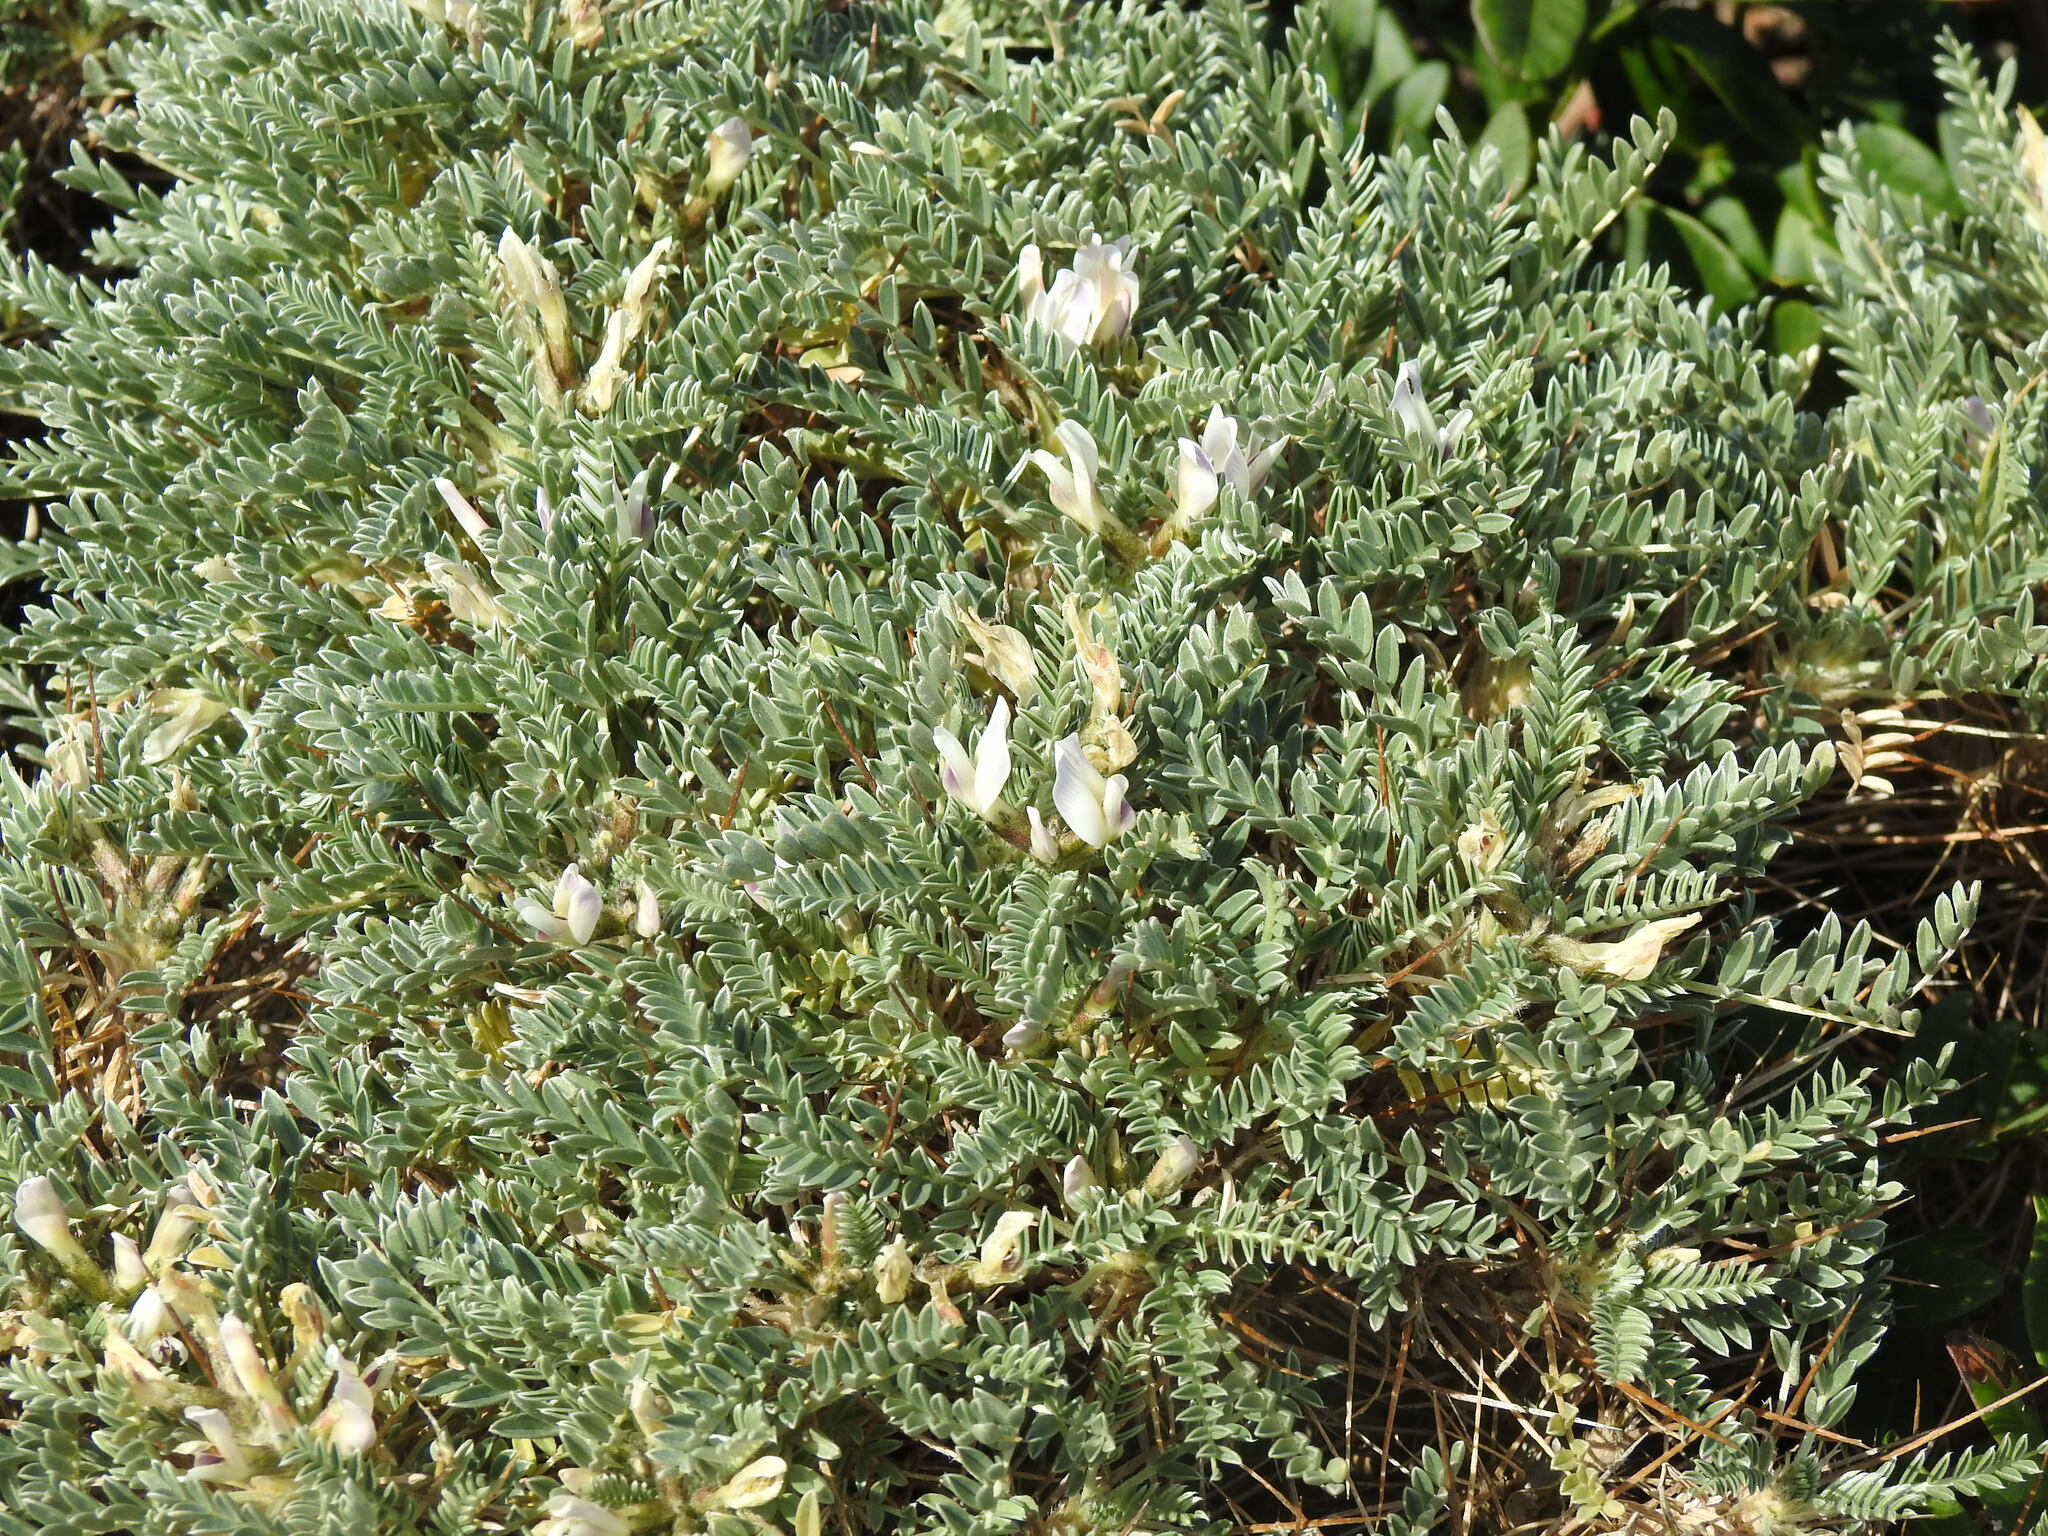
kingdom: Plantae
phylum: Tracheophyta
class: Magnoliopsida
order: Fabales
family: Fabaceae
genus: Astragalus
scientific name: Astragalus tragacantha
